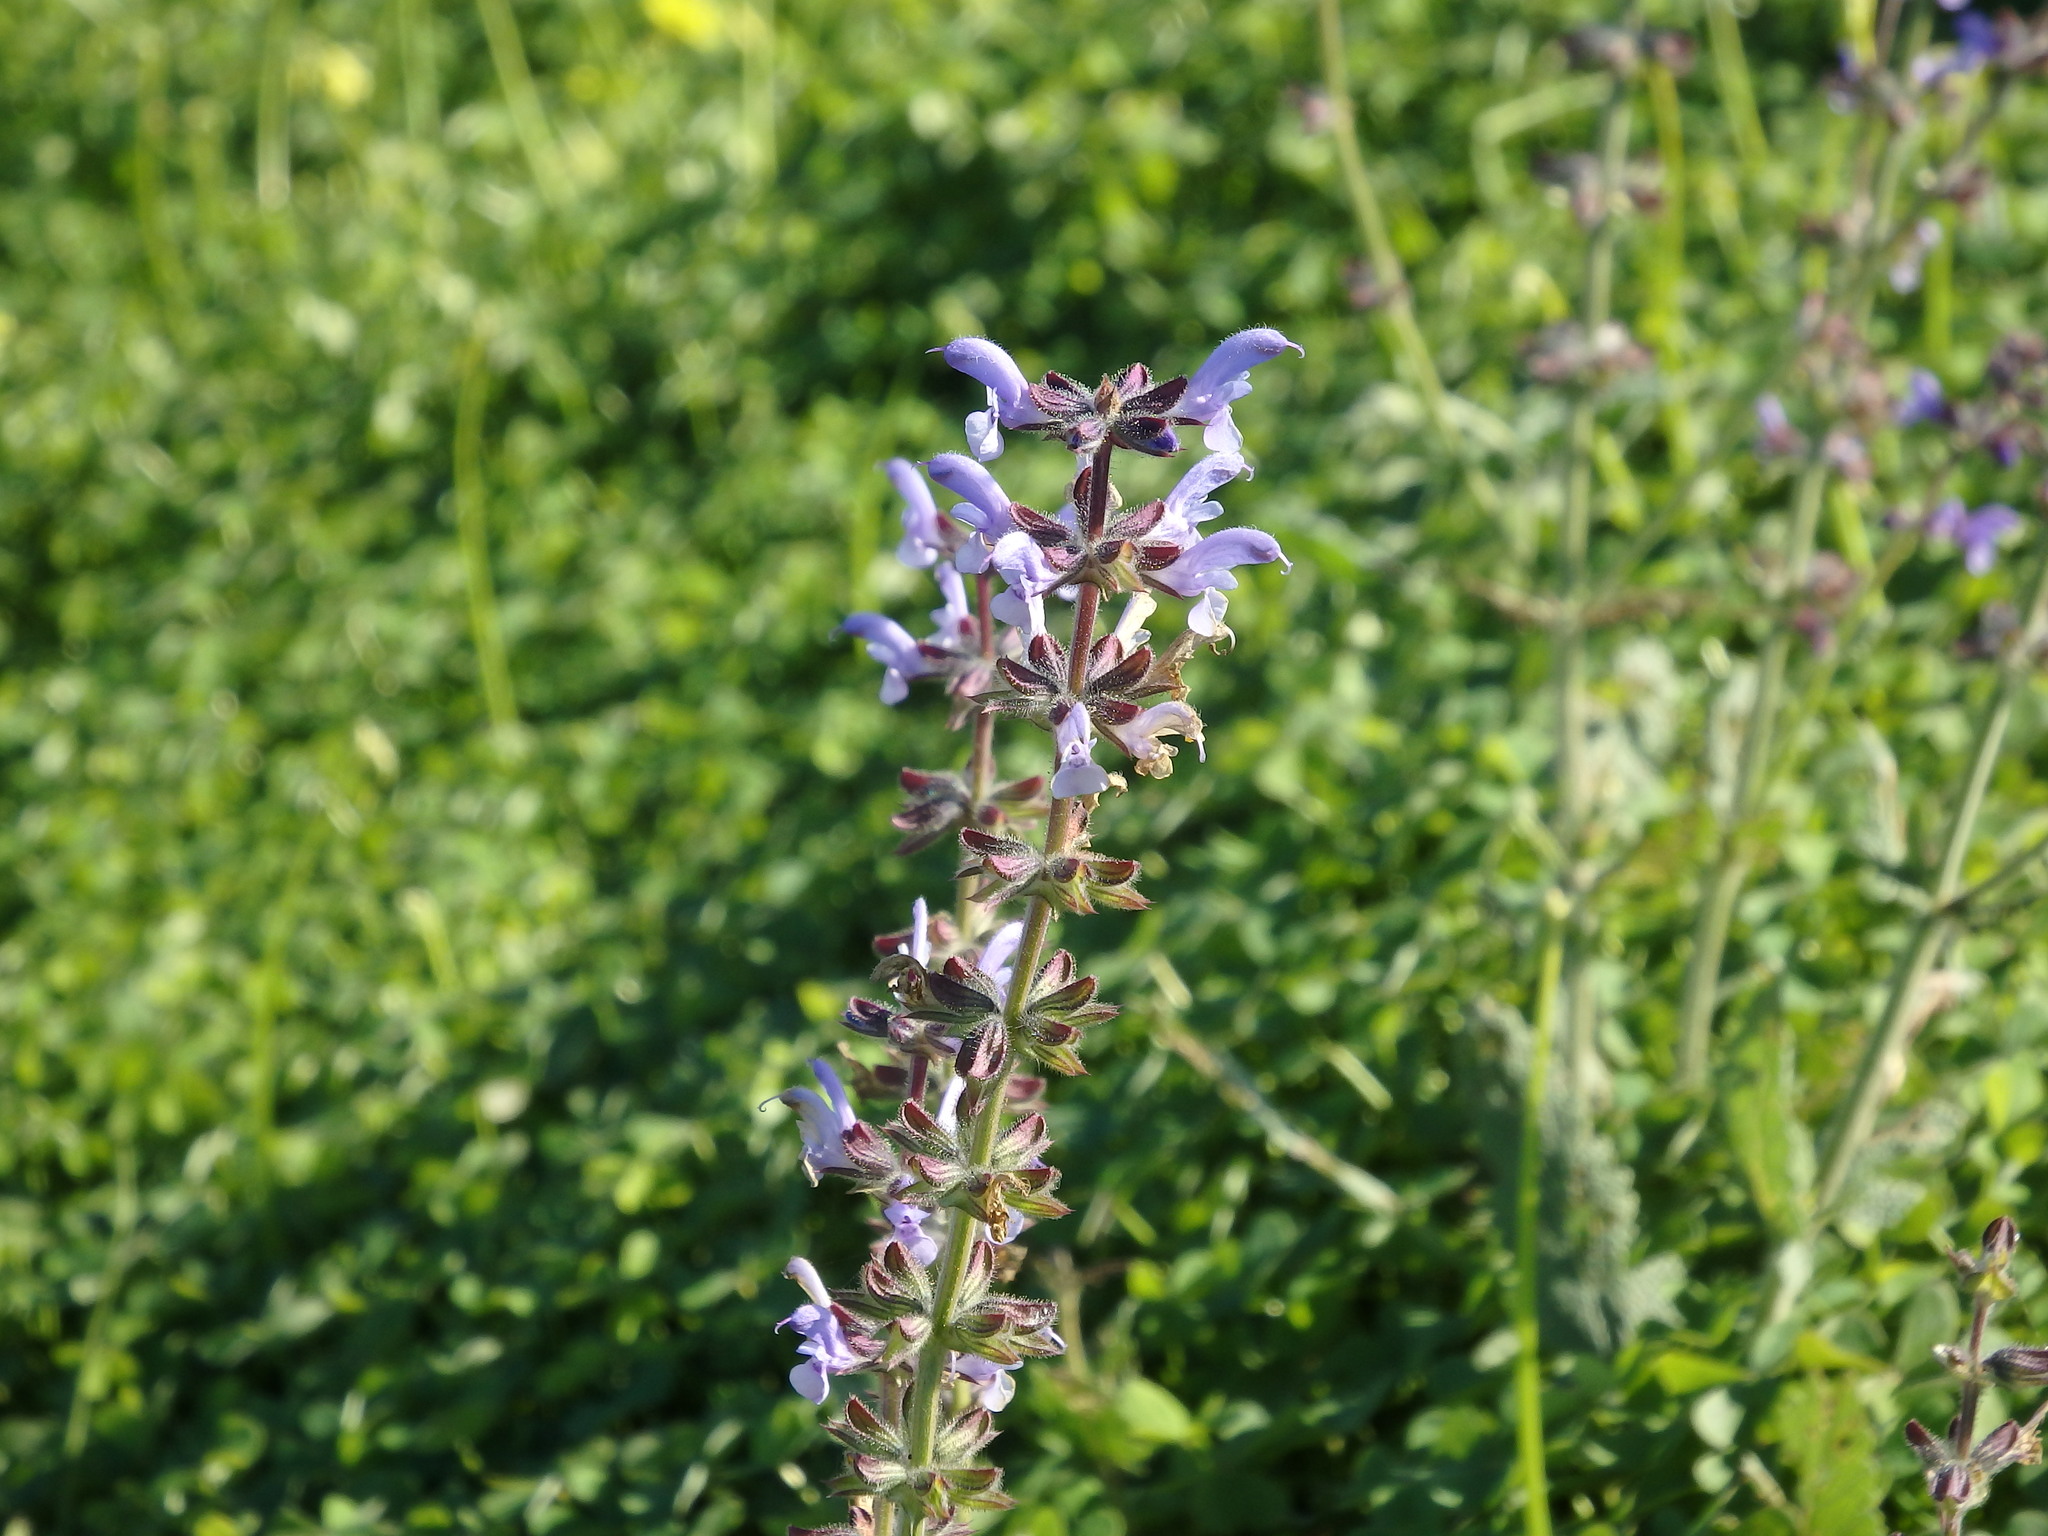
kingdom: Plantae
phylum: Tracheophyta
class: Magnoliopsida
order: Lamiales
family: Lamiaceae
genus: Salvia
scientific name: Salvia verbenaca
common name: Wild clary
